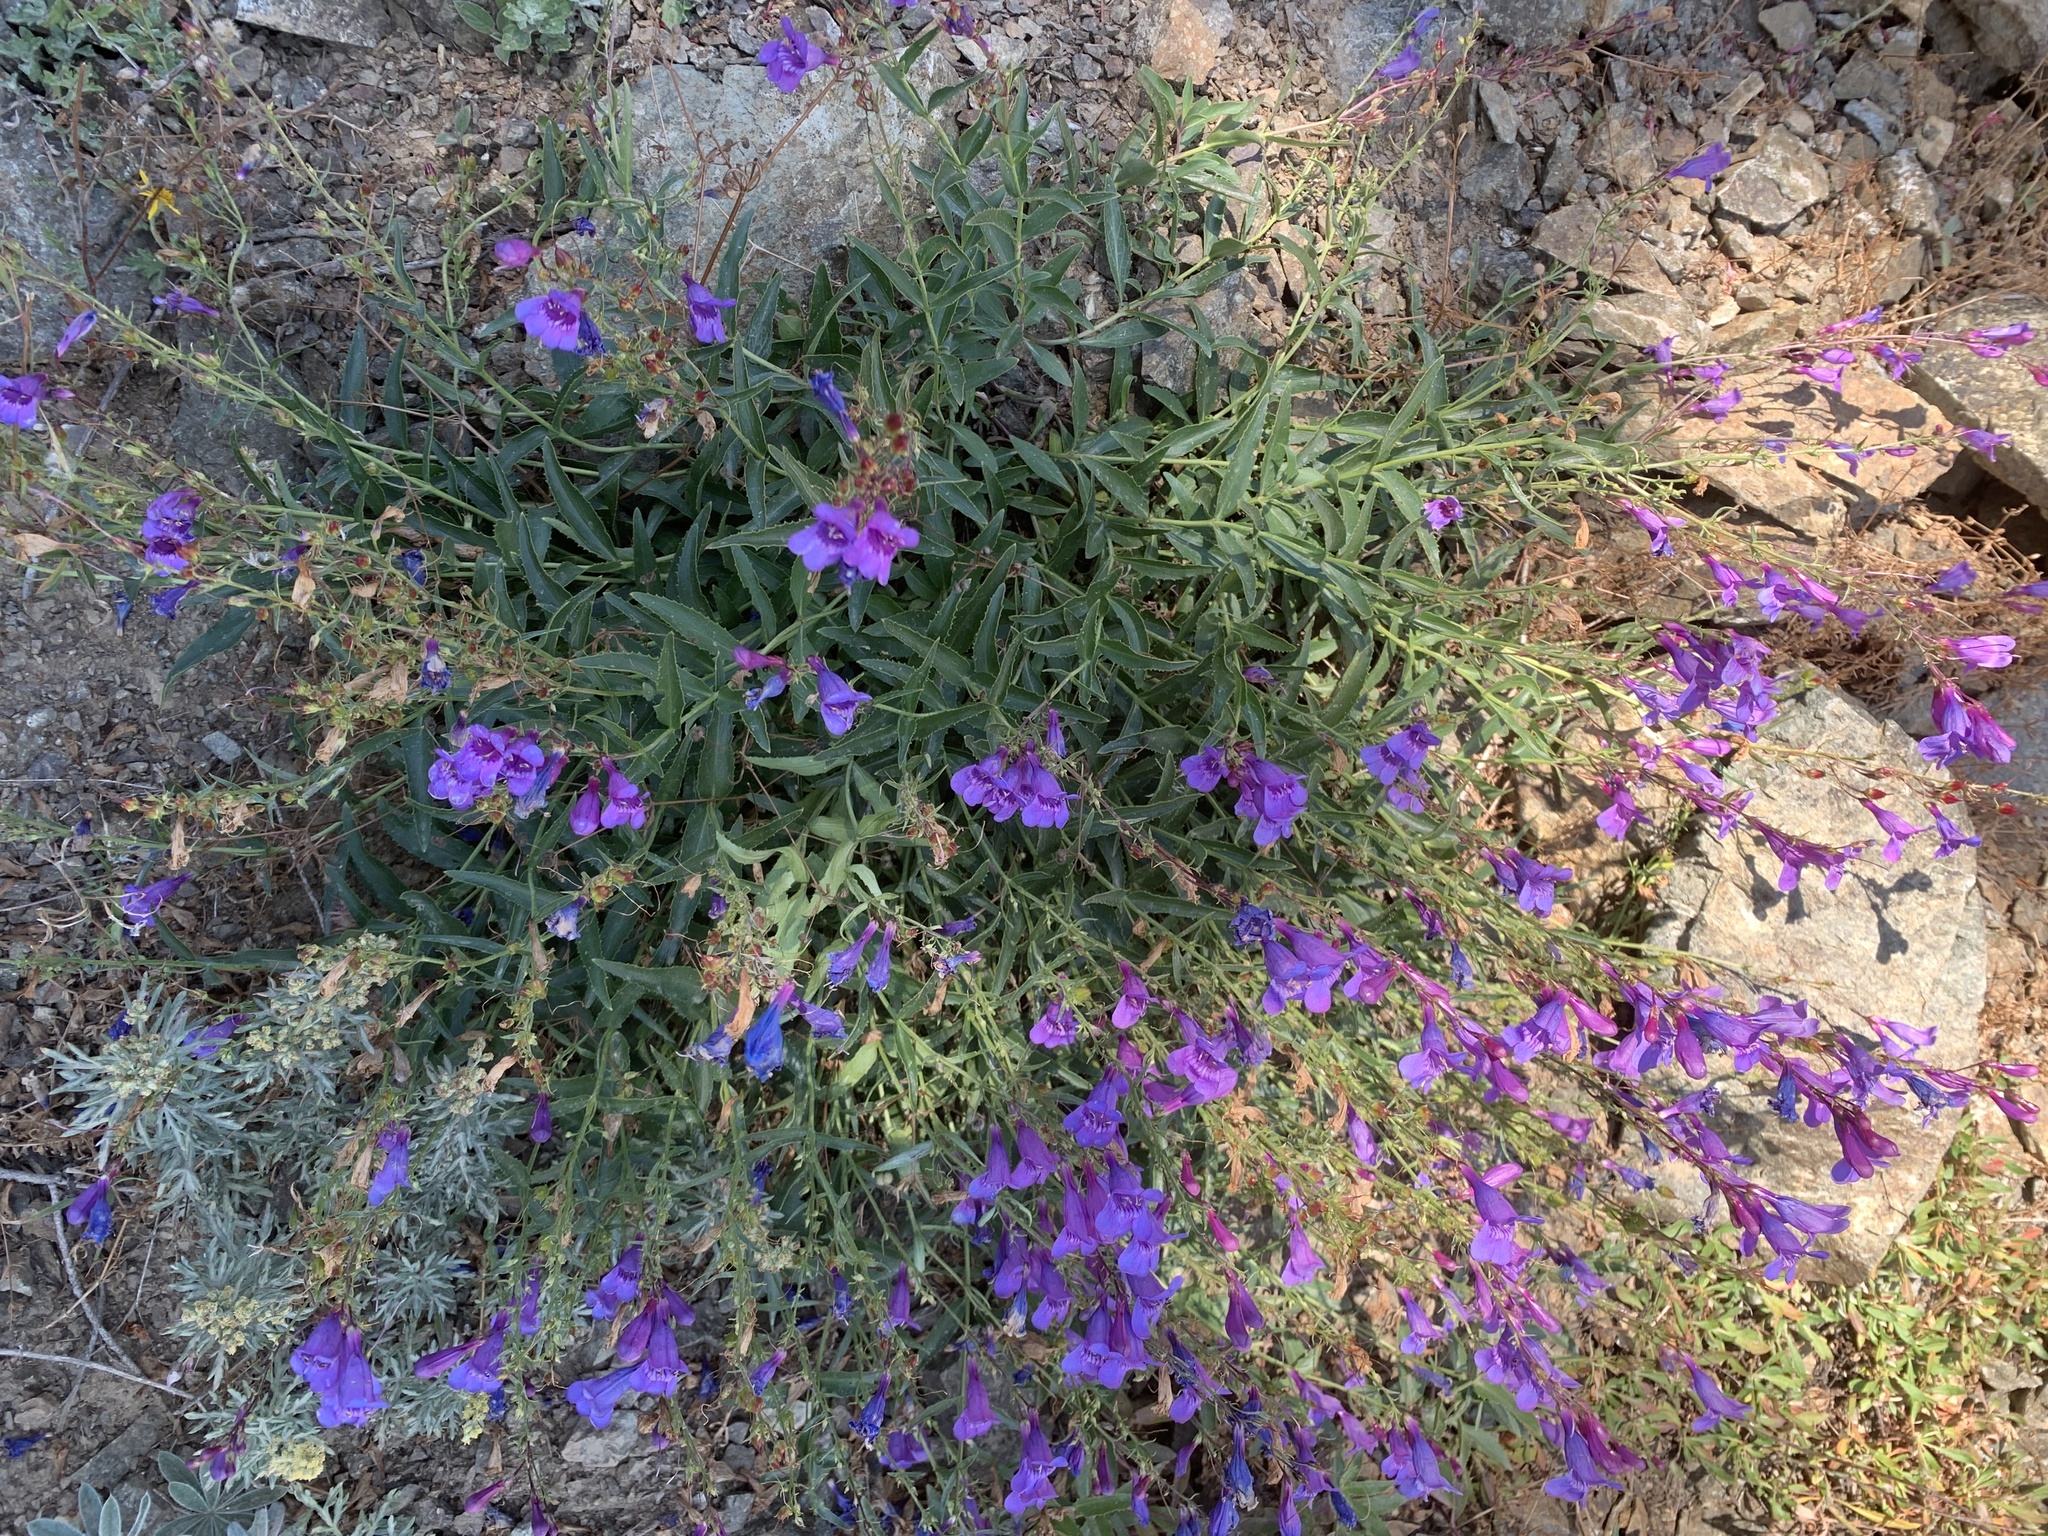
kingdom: Plantae
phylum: Tracheophyta
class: Magnoliopsida
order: Lamiales
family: Plantaginaceae
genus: Penstemon
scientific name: Penstemon venustus
